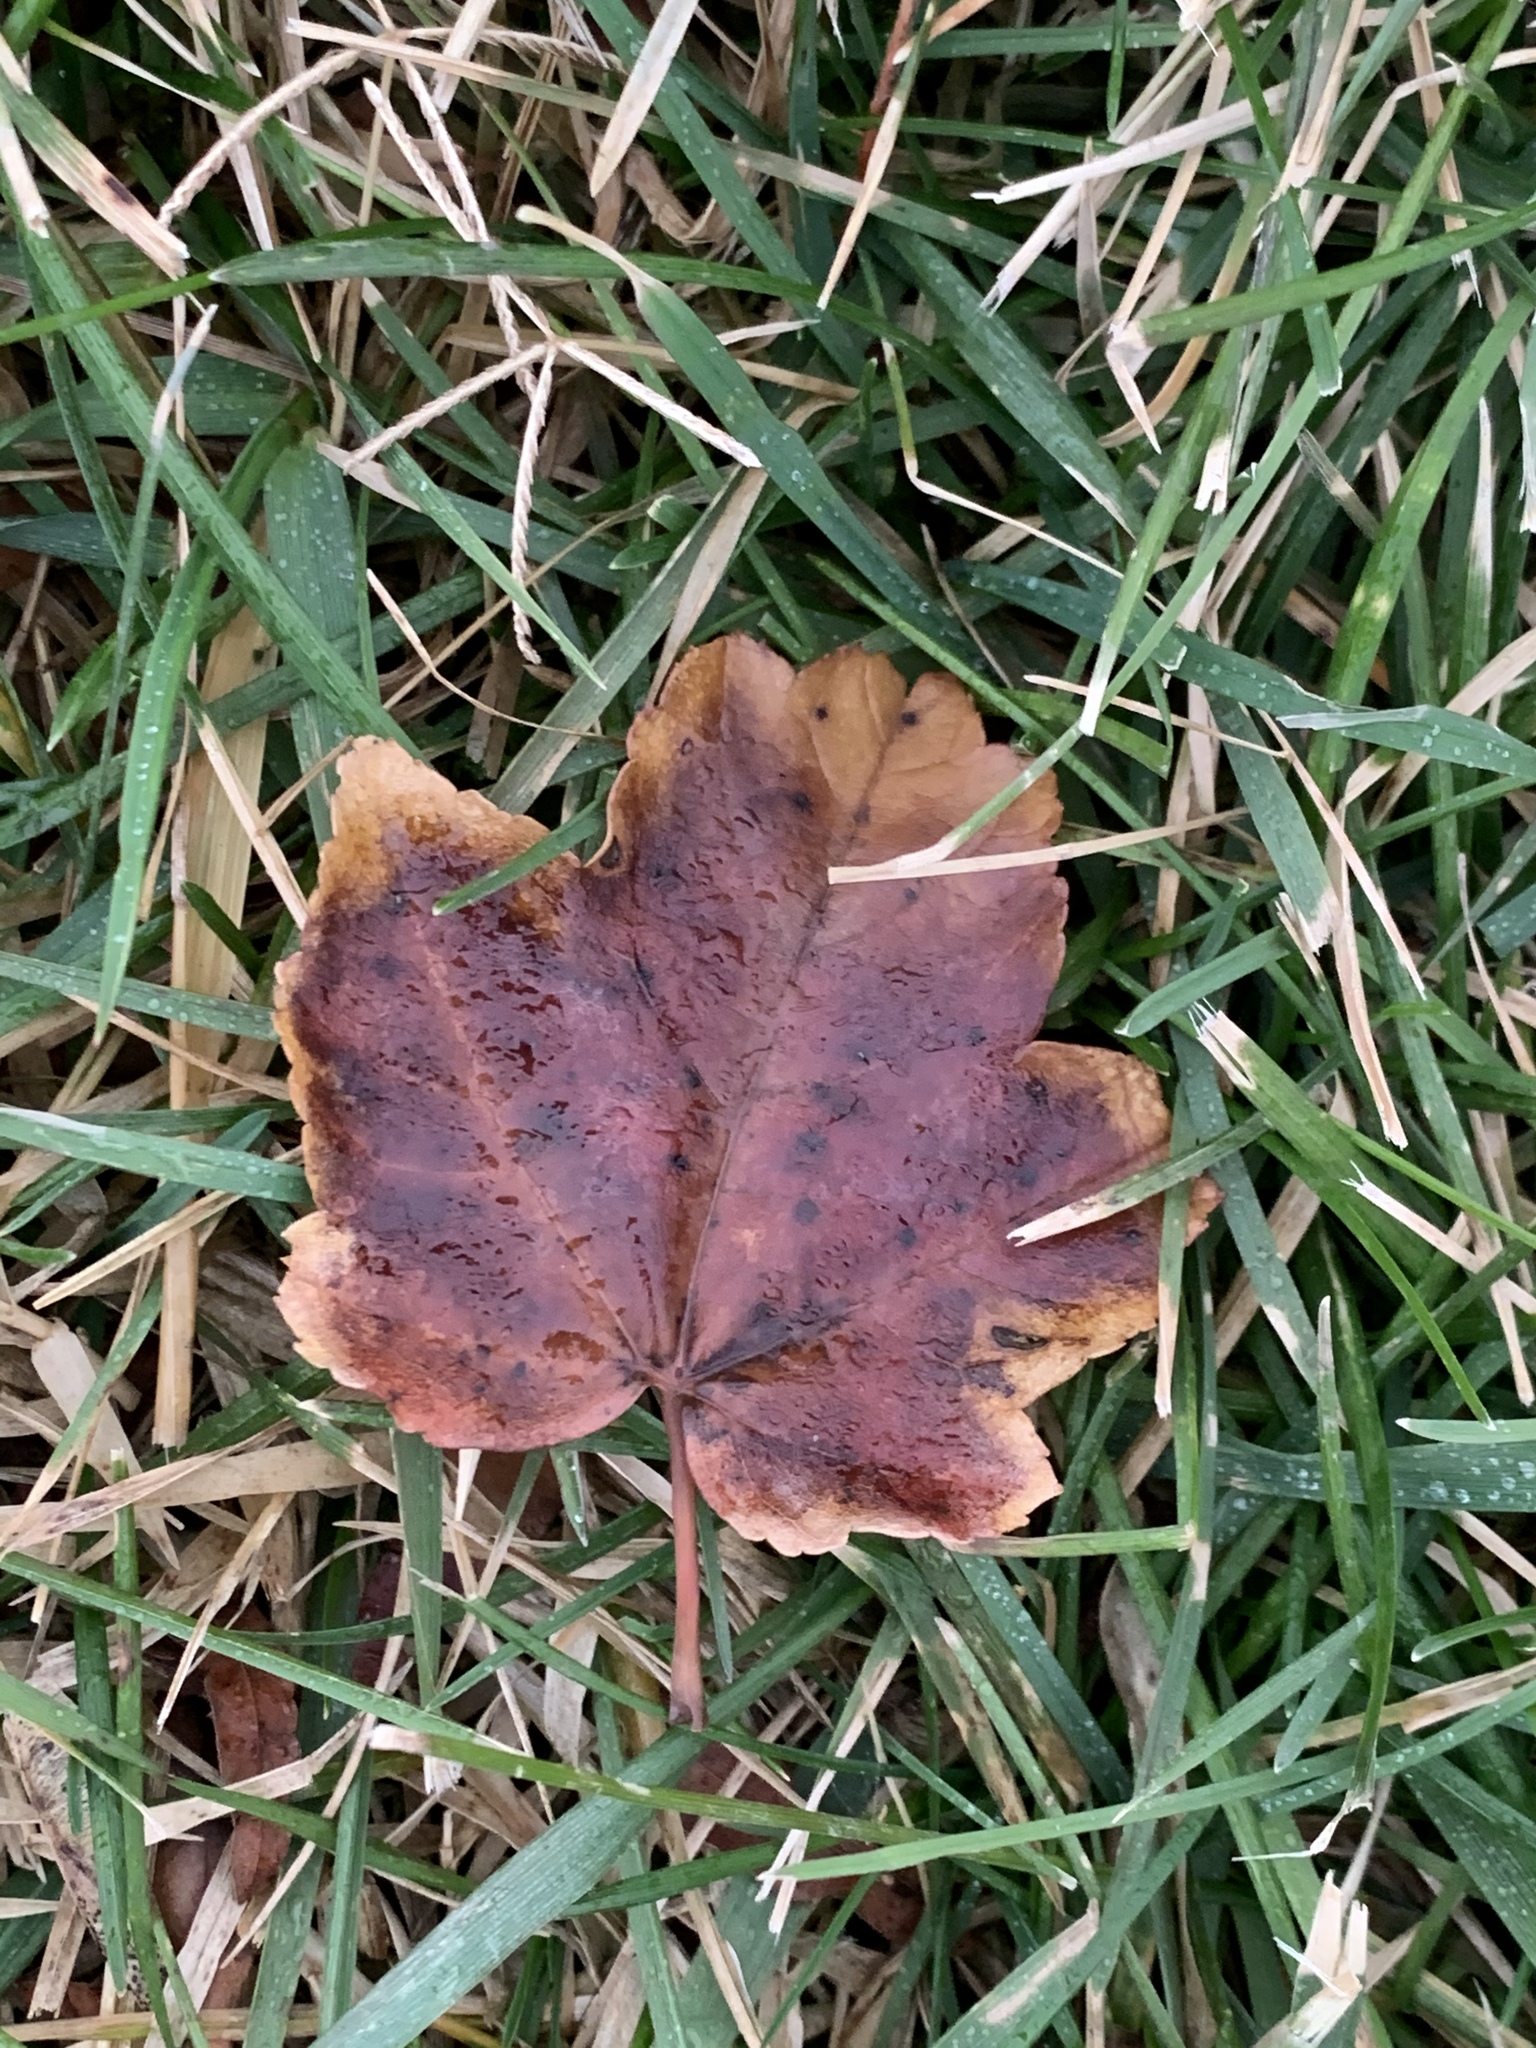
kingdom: Plantae
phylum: Tracheophyta
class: Magnoliopsida
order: Sapindales
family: Sapindaceae
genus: Acer
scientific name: Acer rubrum
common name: Red maple
